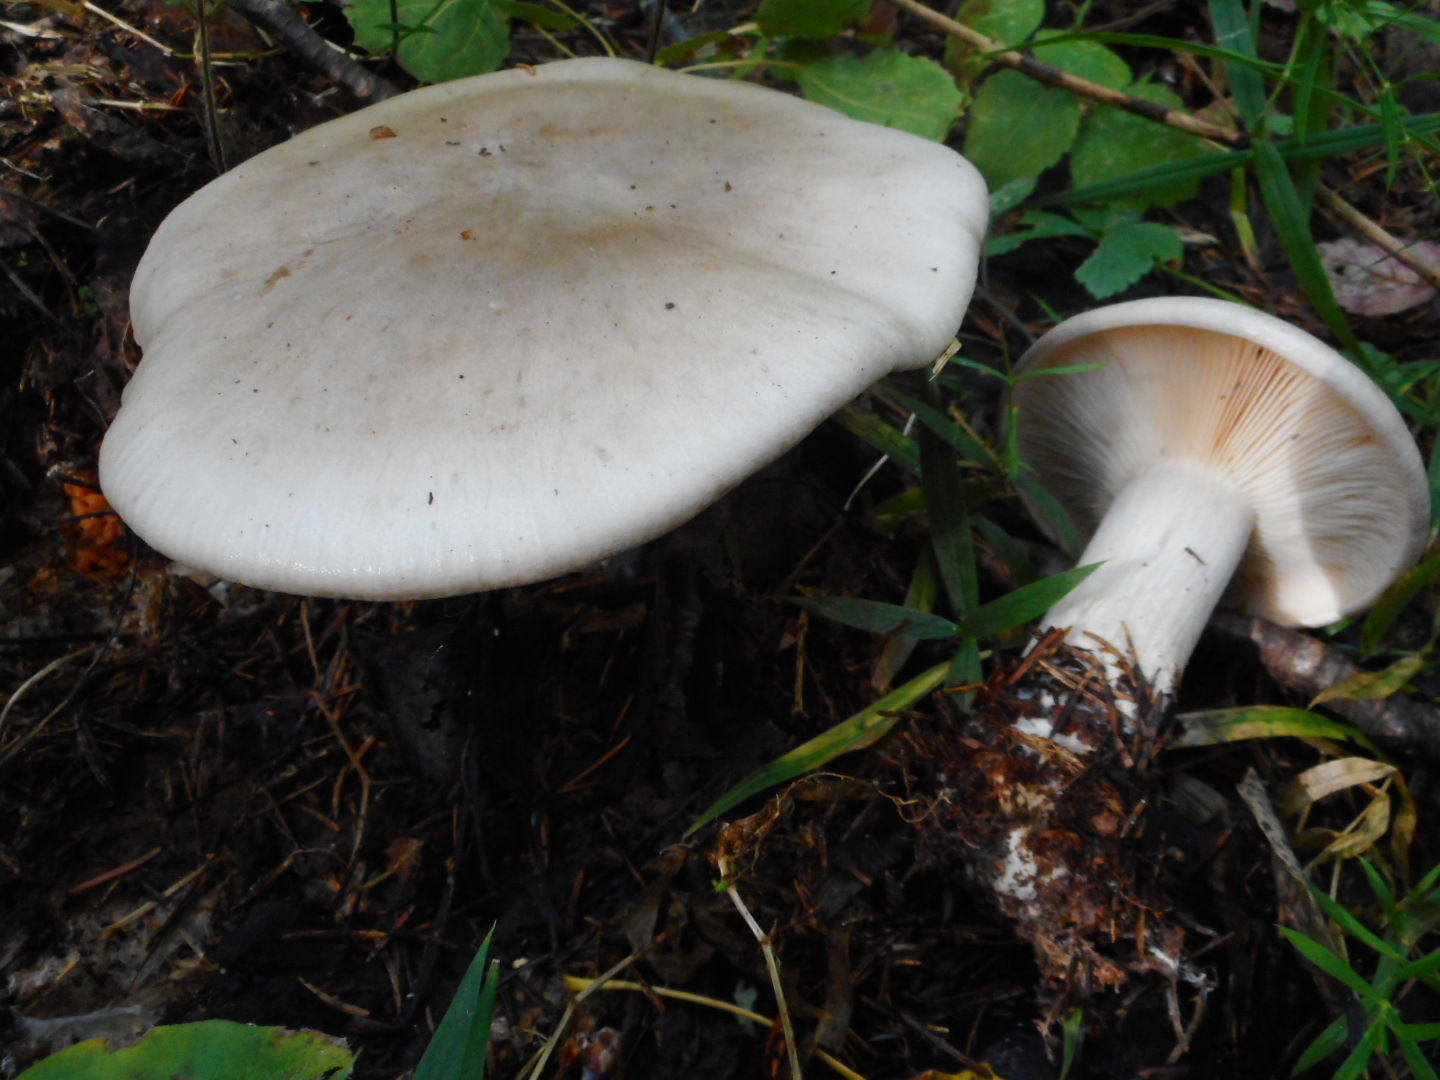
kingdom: Fungi
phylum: Basidiomycota
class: Agaricomycetes
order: Agaricales
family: Tricholomataceae
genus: Clitocybe
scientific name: Clitocybe nebularis
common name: Clouded agaric
